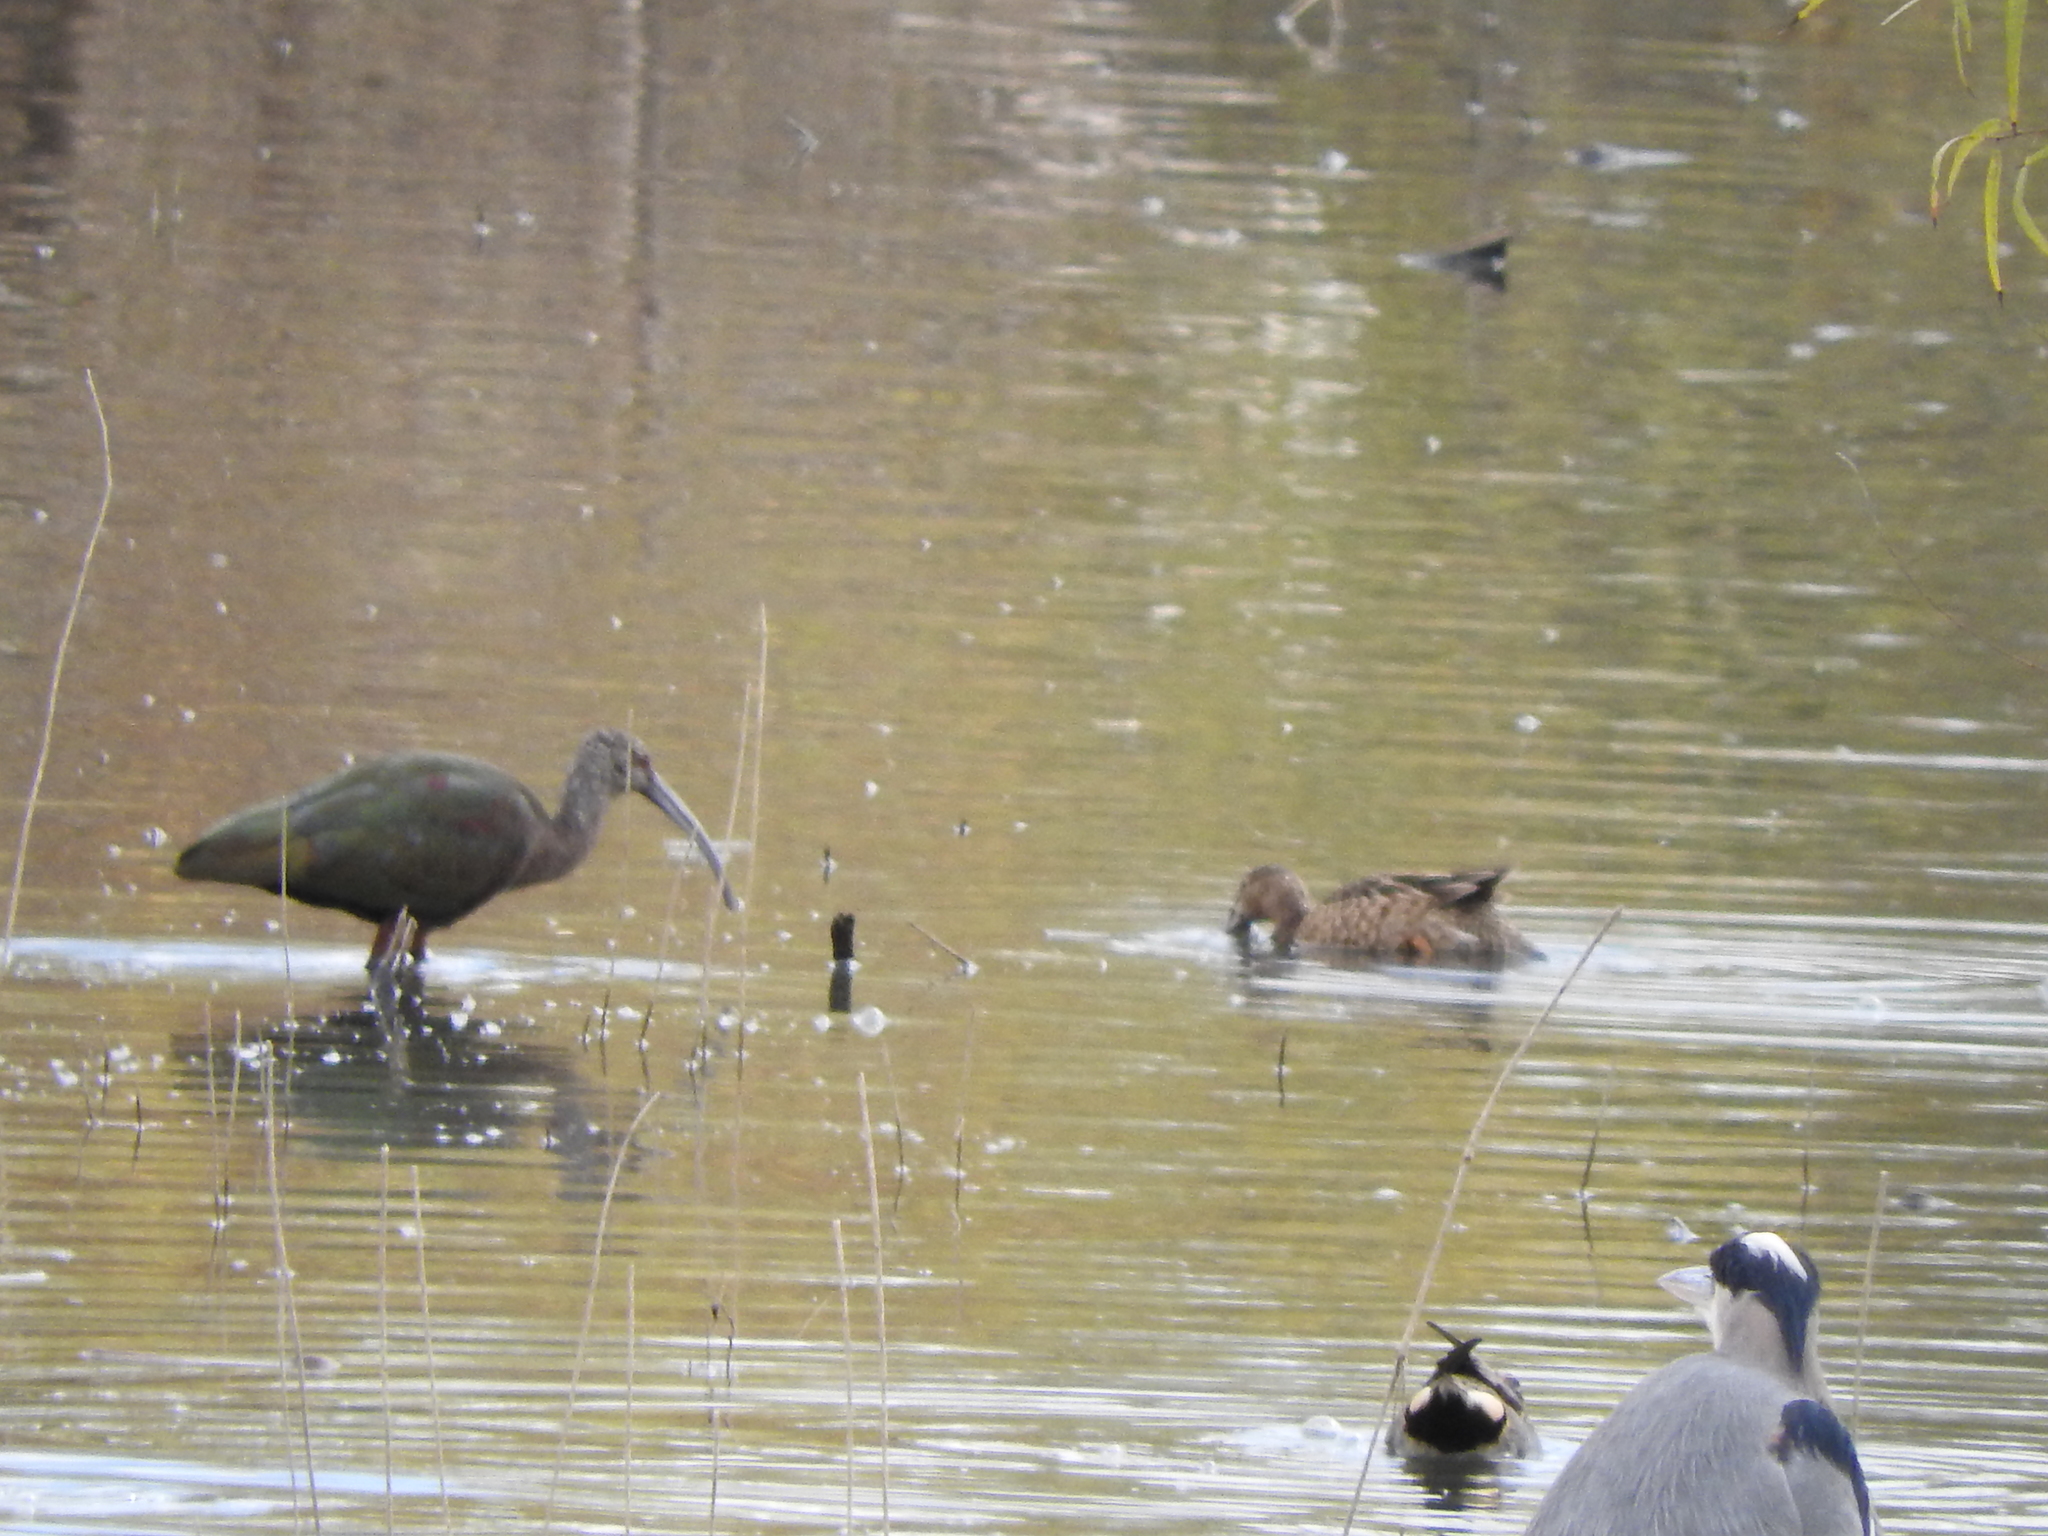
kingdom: Animalia
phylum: Chordata
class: Aves
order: Pelecaniformes
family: Ardeidae
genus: Ardea
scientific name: Ardea herodias
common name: Great blue heron
